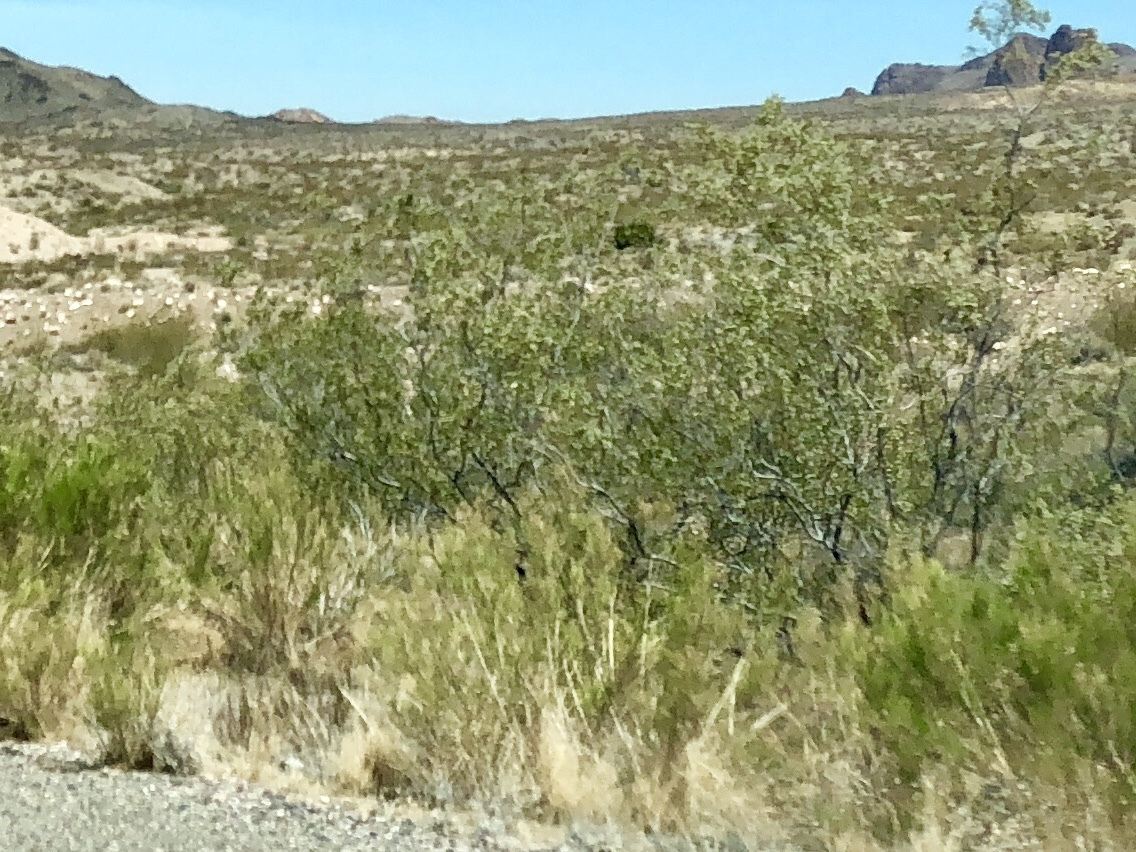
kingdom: Plantae
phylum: Tracheophyta
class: Magnoliopsida
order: Zygophyllales
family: Zygophyllaceae
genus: Larrea
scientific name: Larrea tridentata
